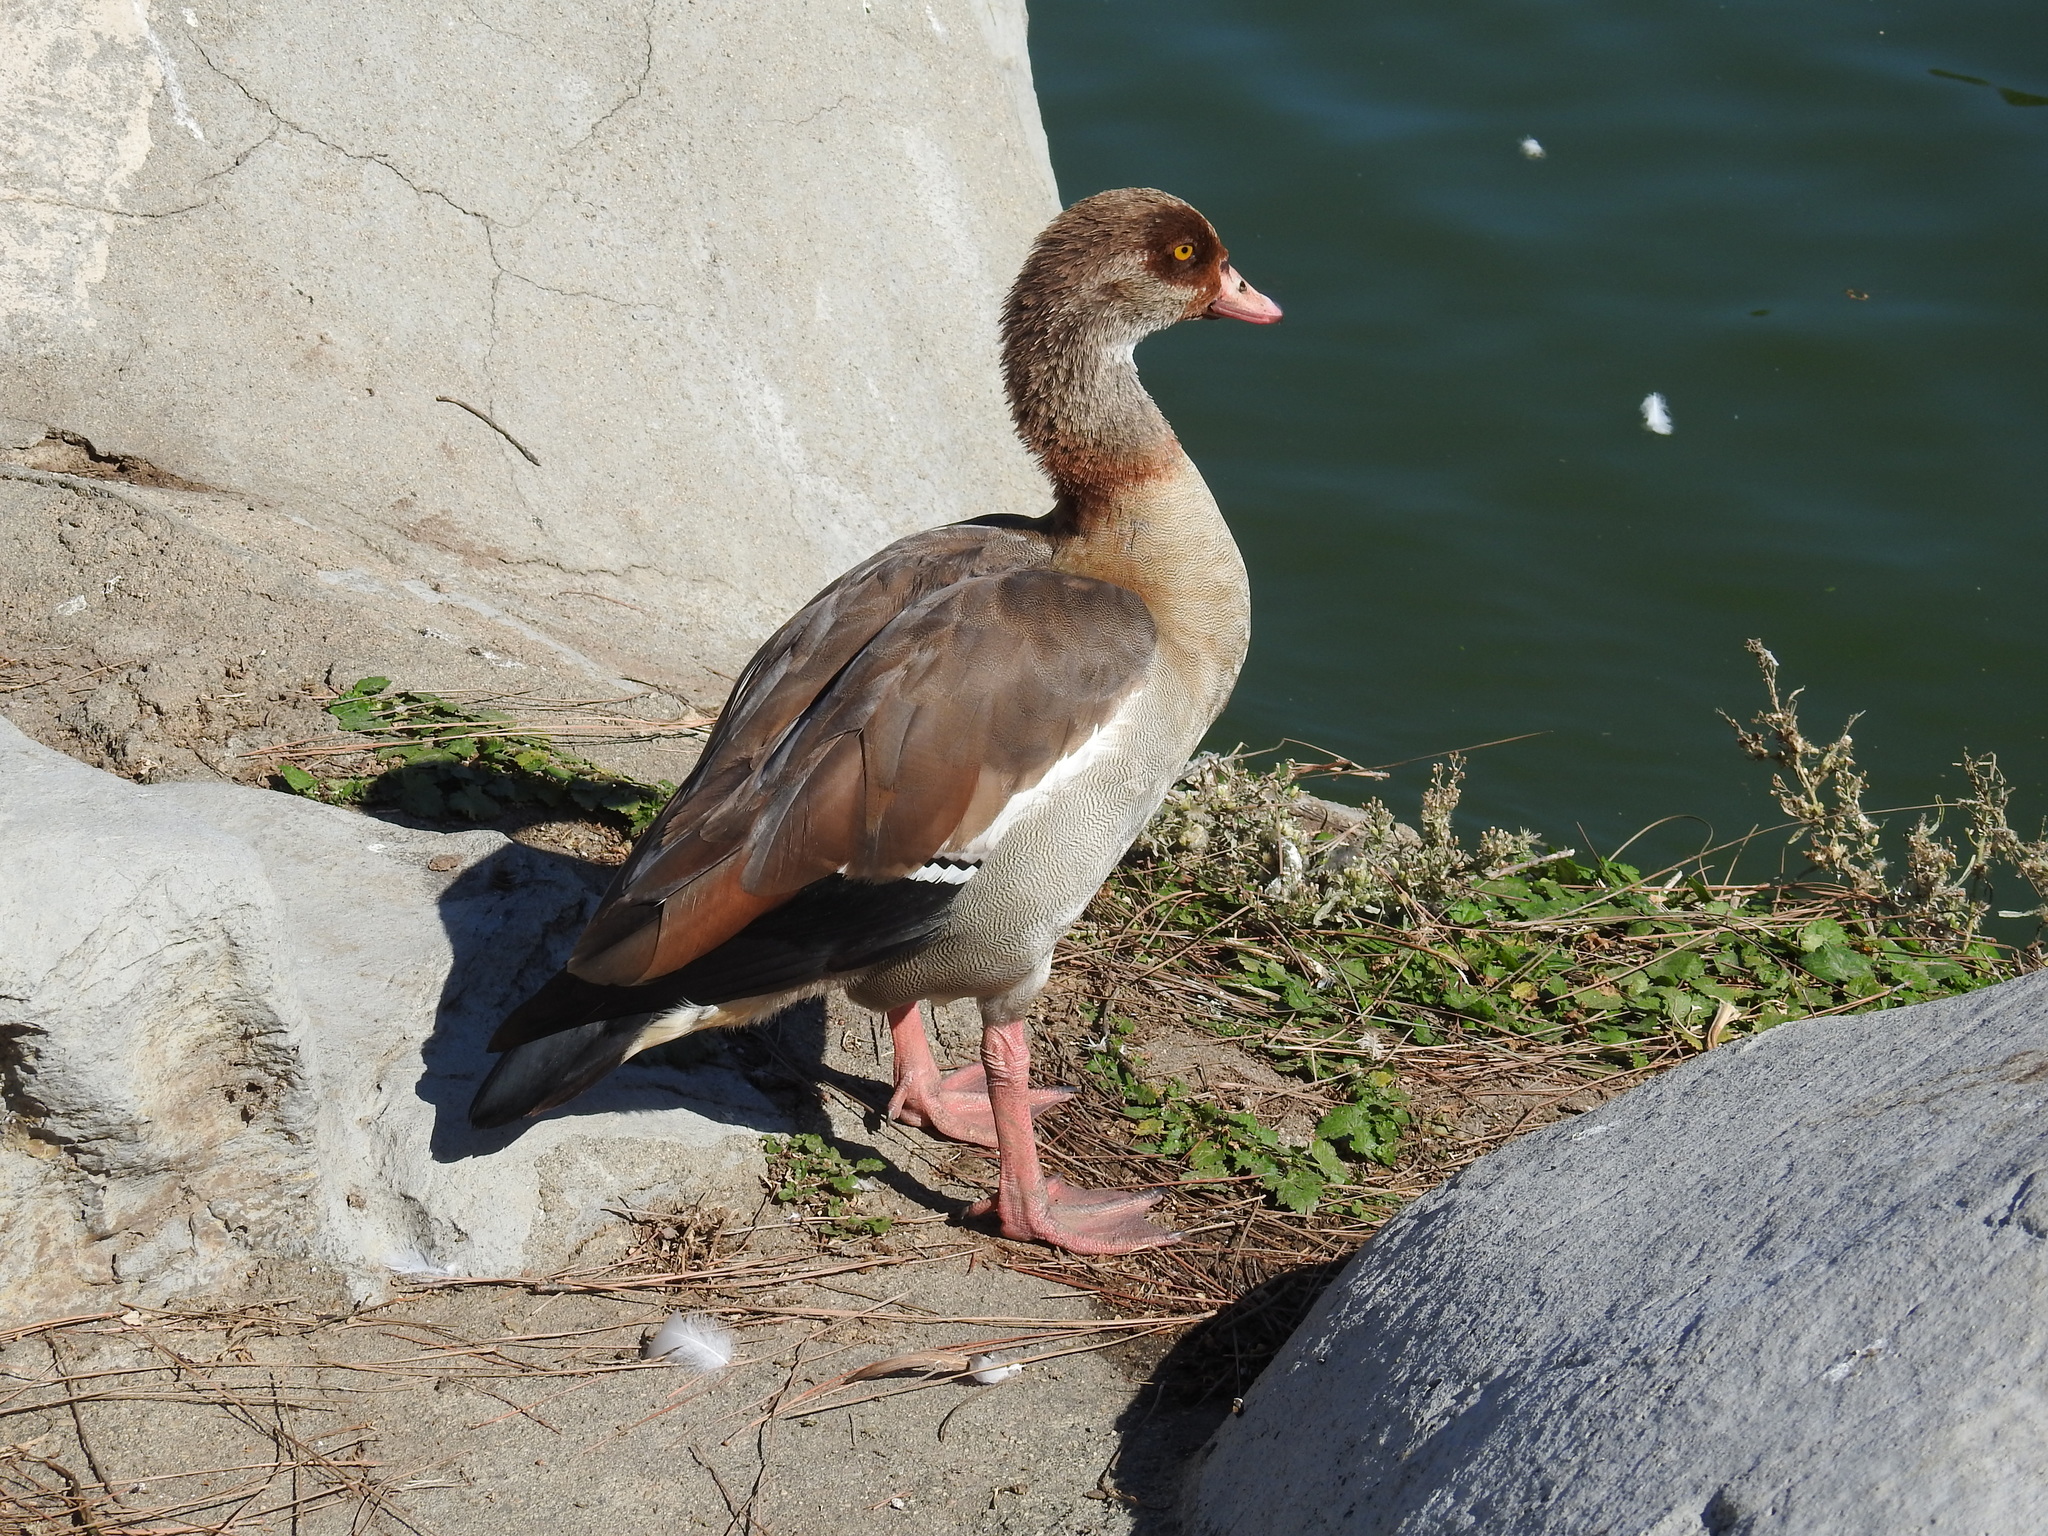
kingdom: Animalia
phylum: Chordata
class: Aves
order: Anseriformes
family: Anatidae
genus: Alopochen
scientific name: Alopochen aegyptiaca
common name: Egyptian goose
